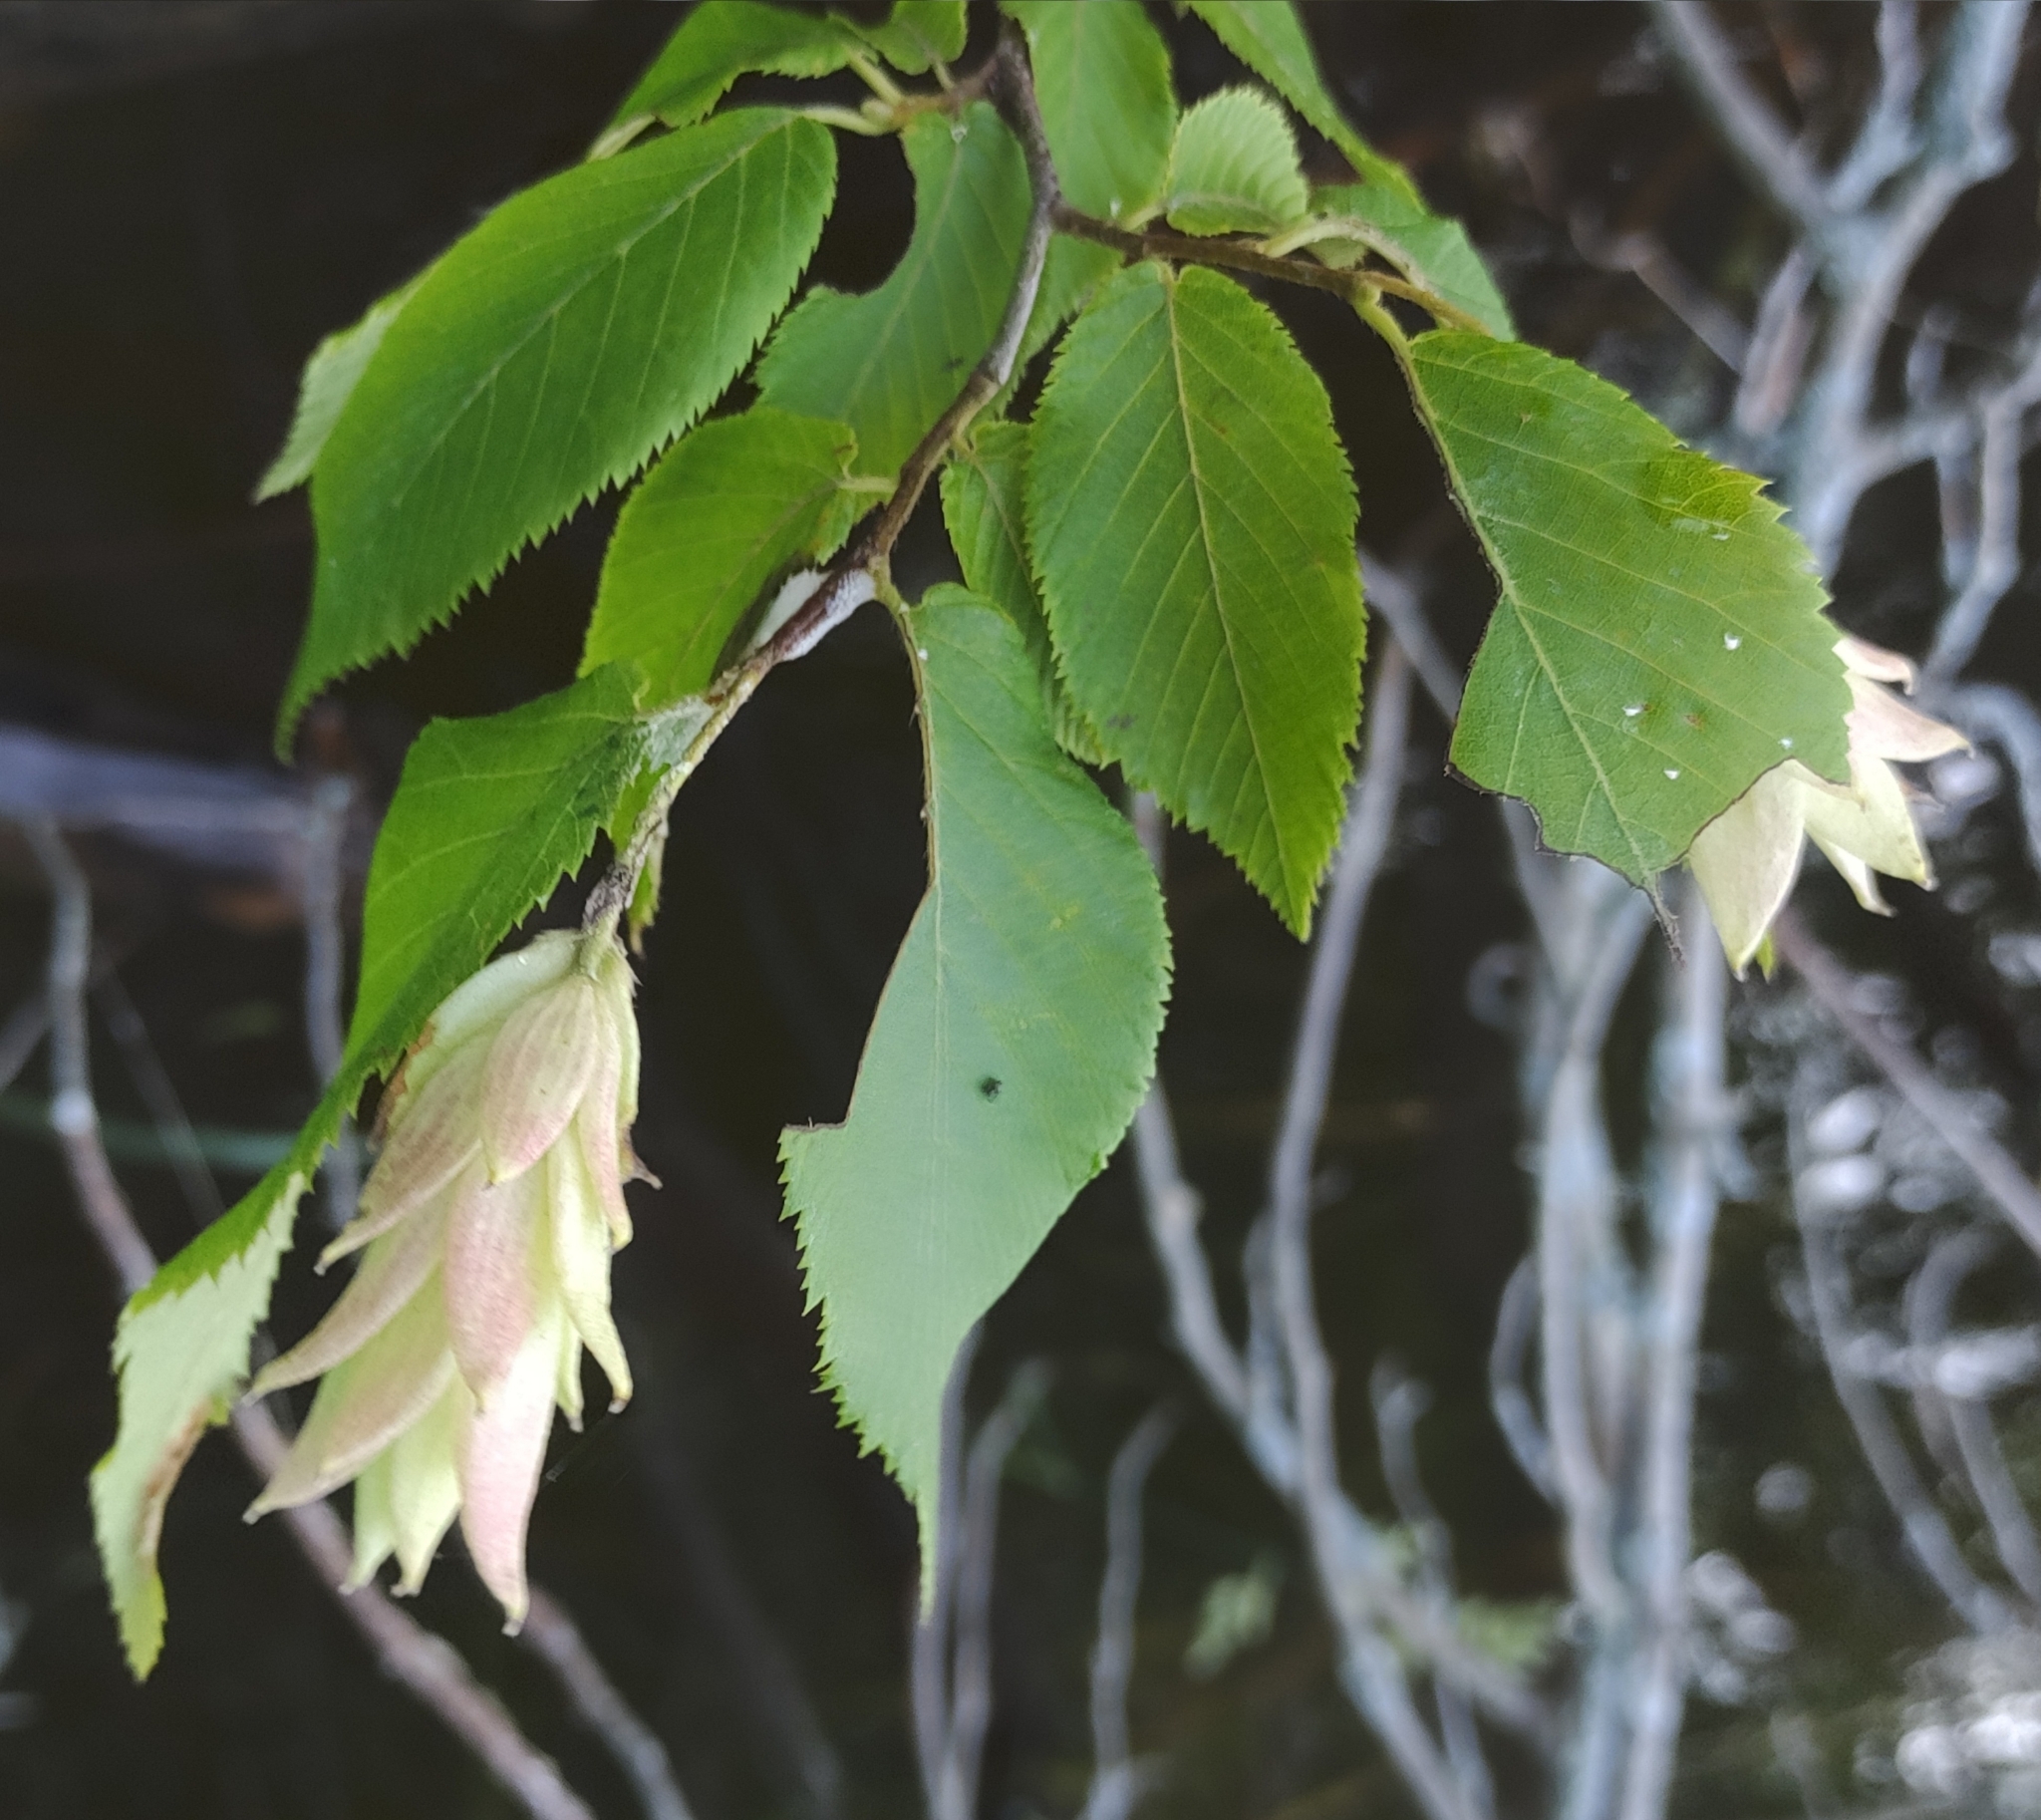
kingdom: Plantae
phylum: Tracheophyta
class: Magnoliopsida
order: Fagales
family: Betulaceae
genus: Ostrya
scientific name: Ostrya virginiana
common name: Ironwood
